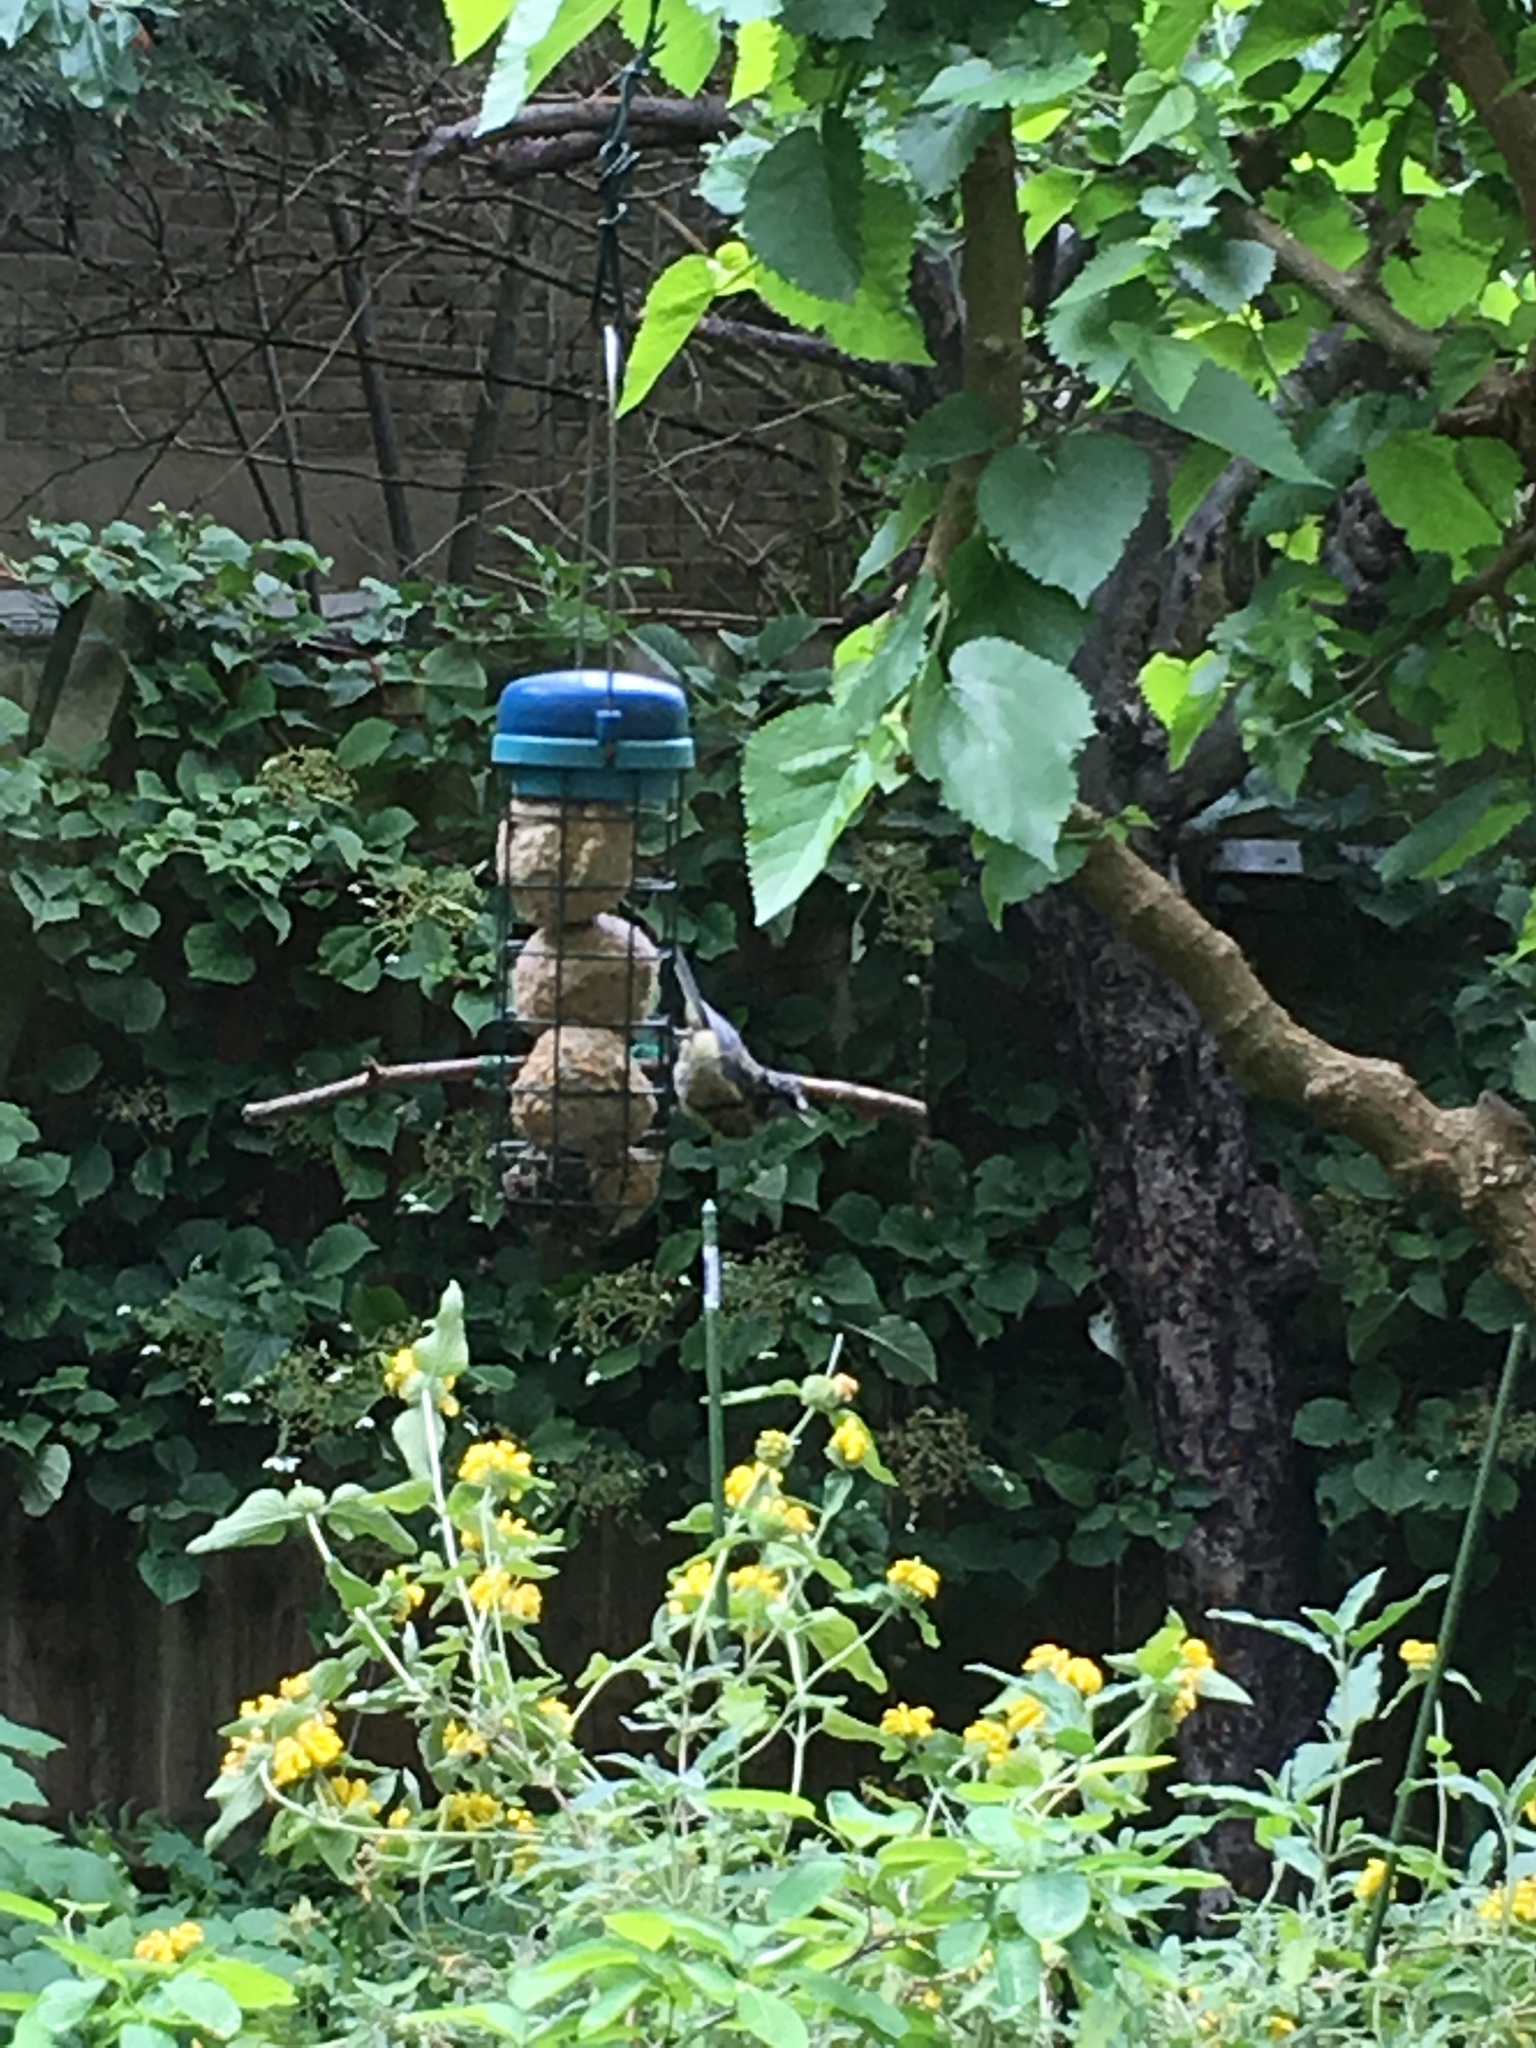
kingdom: Animalia
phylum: Chordata
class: Aves
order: Passeriformes
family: Paridae
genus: Cyanistes
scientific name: Cyanistes caeruleus
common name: Eurasian blue tit
